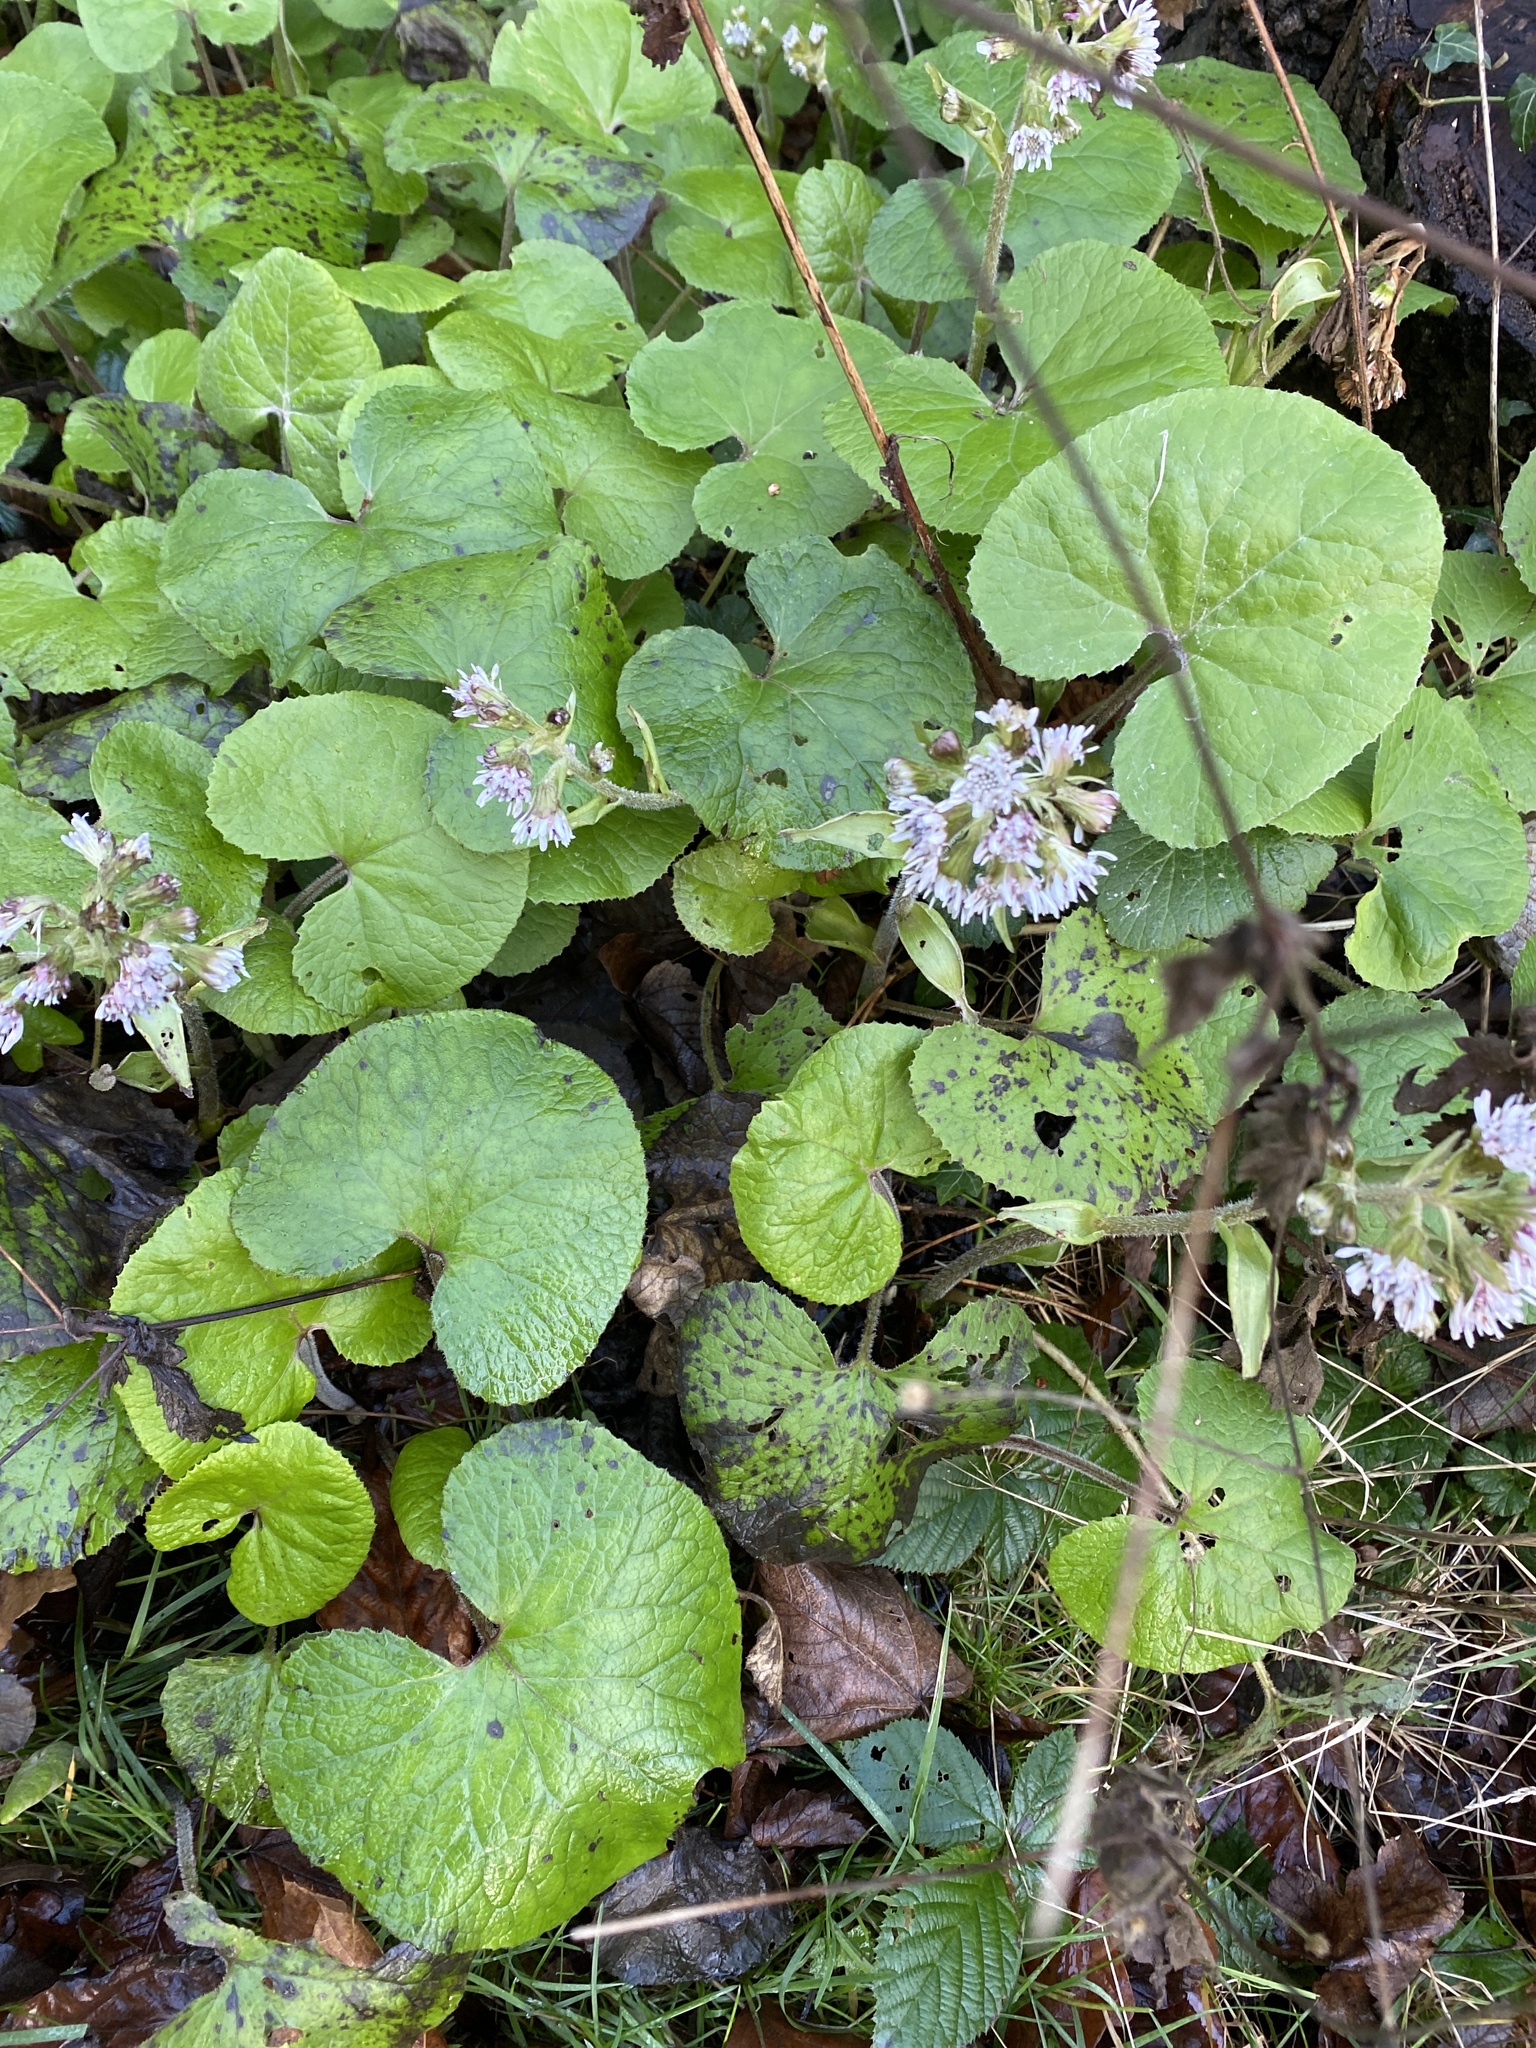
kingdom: Plantae
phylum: Tracheophyta
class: Magnoliopsida
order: Asterales
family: Asteraceae
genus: Petasites
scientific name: Petasites pyrenaicus
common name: Winter heliotrope
